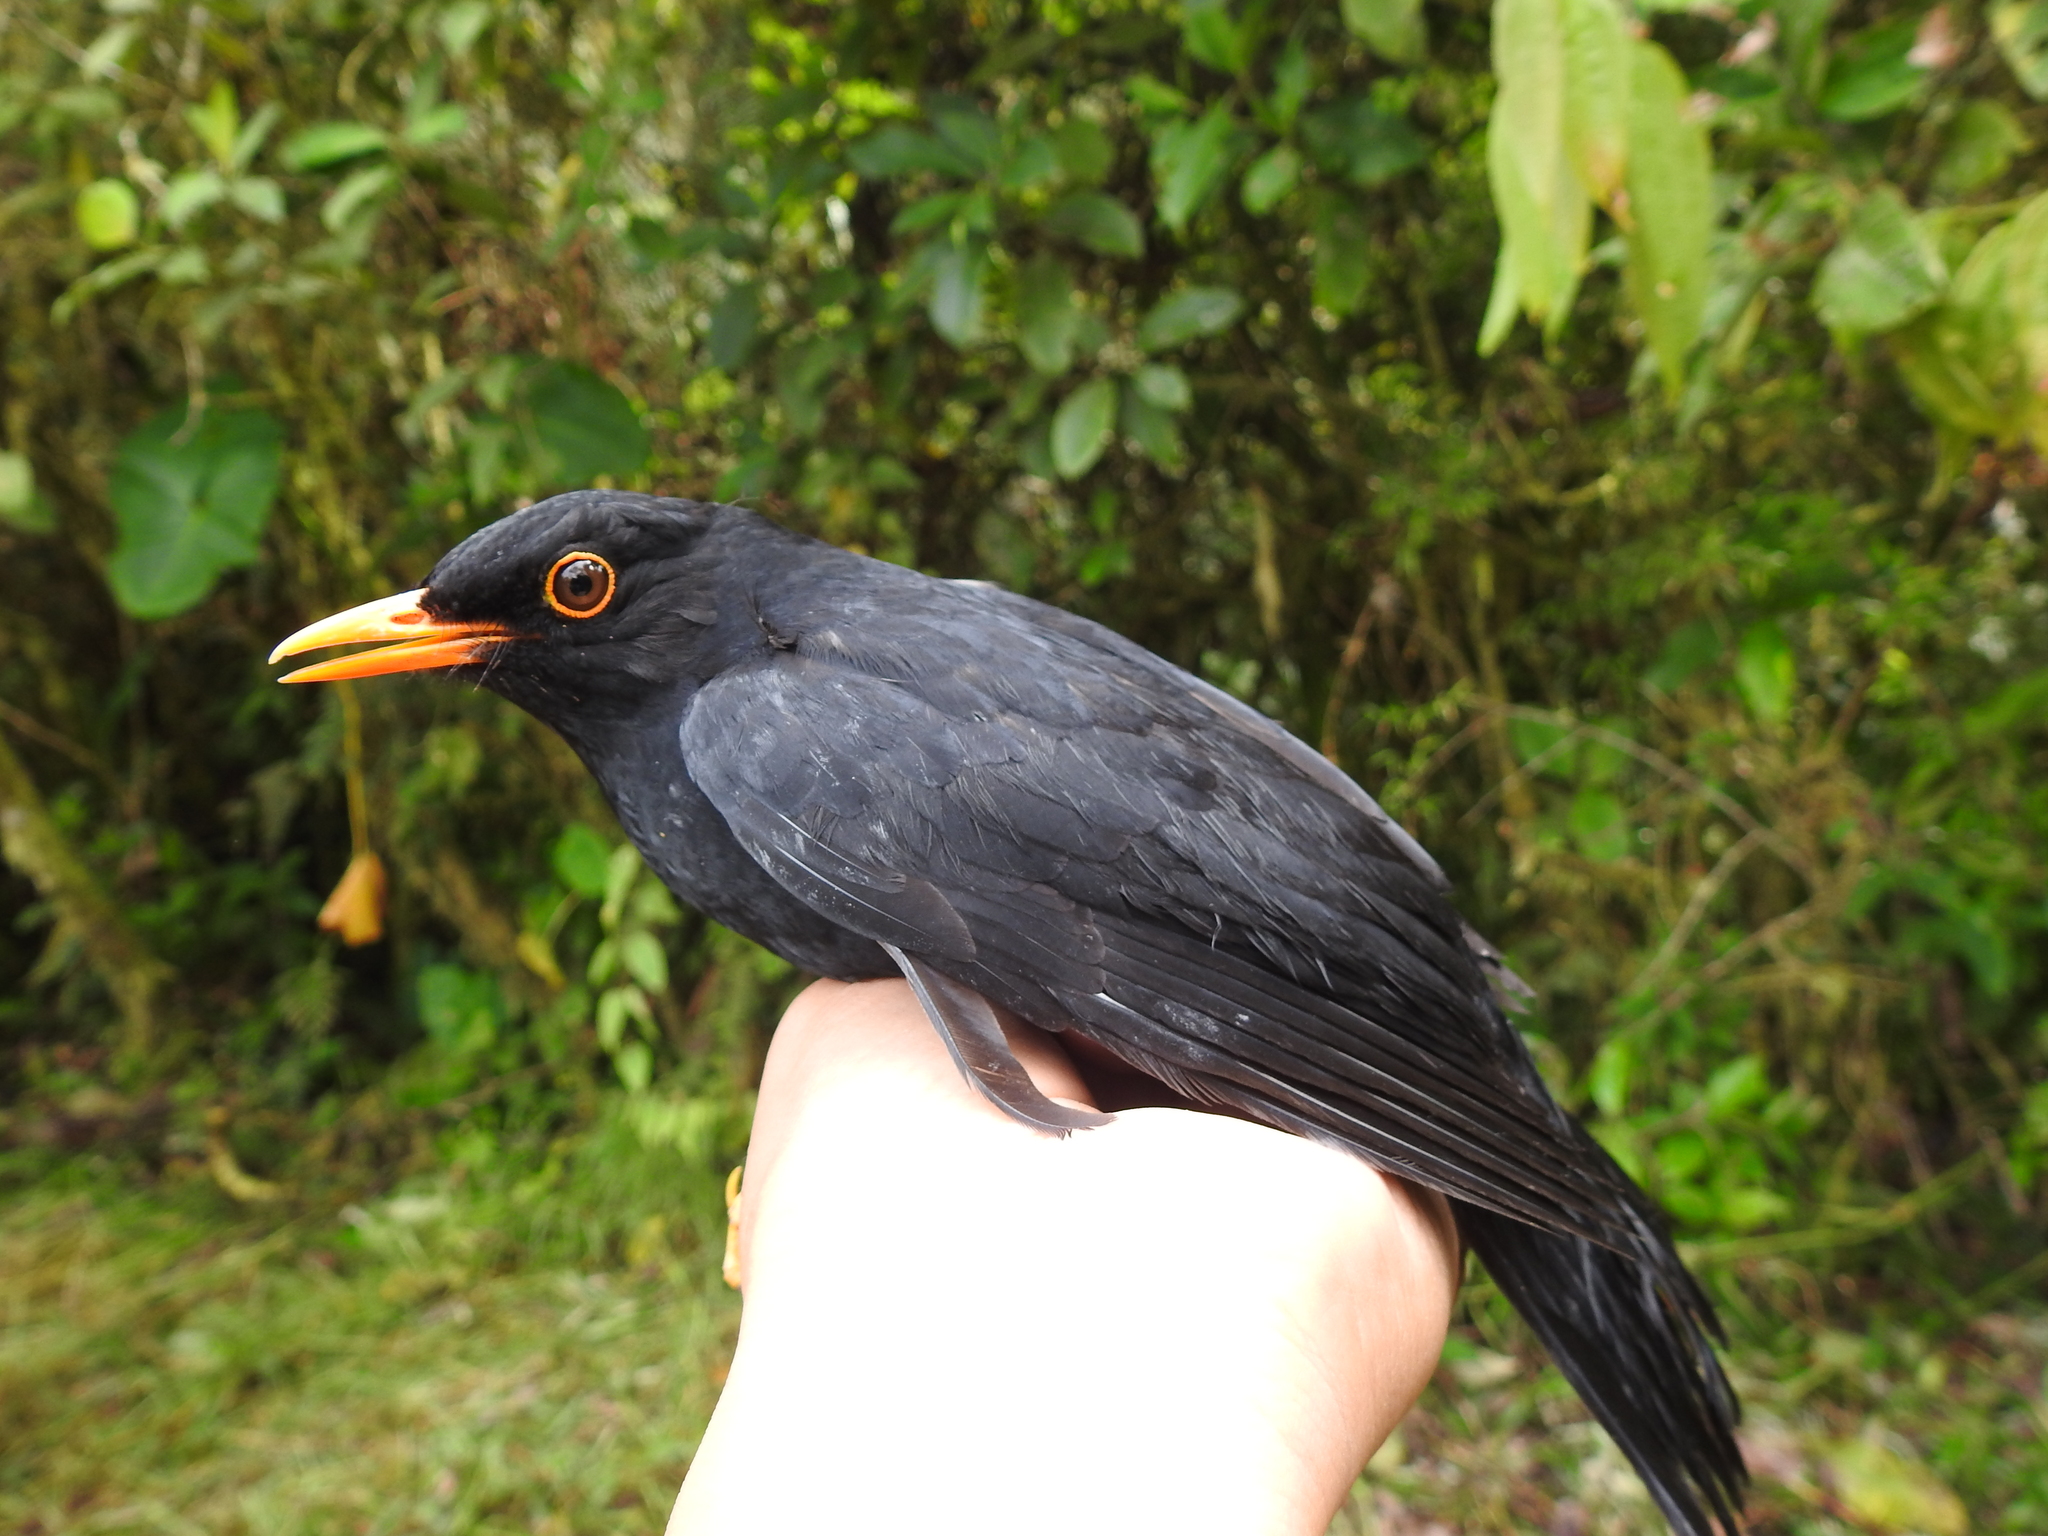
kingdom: Animalia
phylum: Chordata
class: Aves
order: Passeriformes
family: Turdidae
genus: Turdus
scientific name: Turdus serranus
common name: Glossy-black thrush
